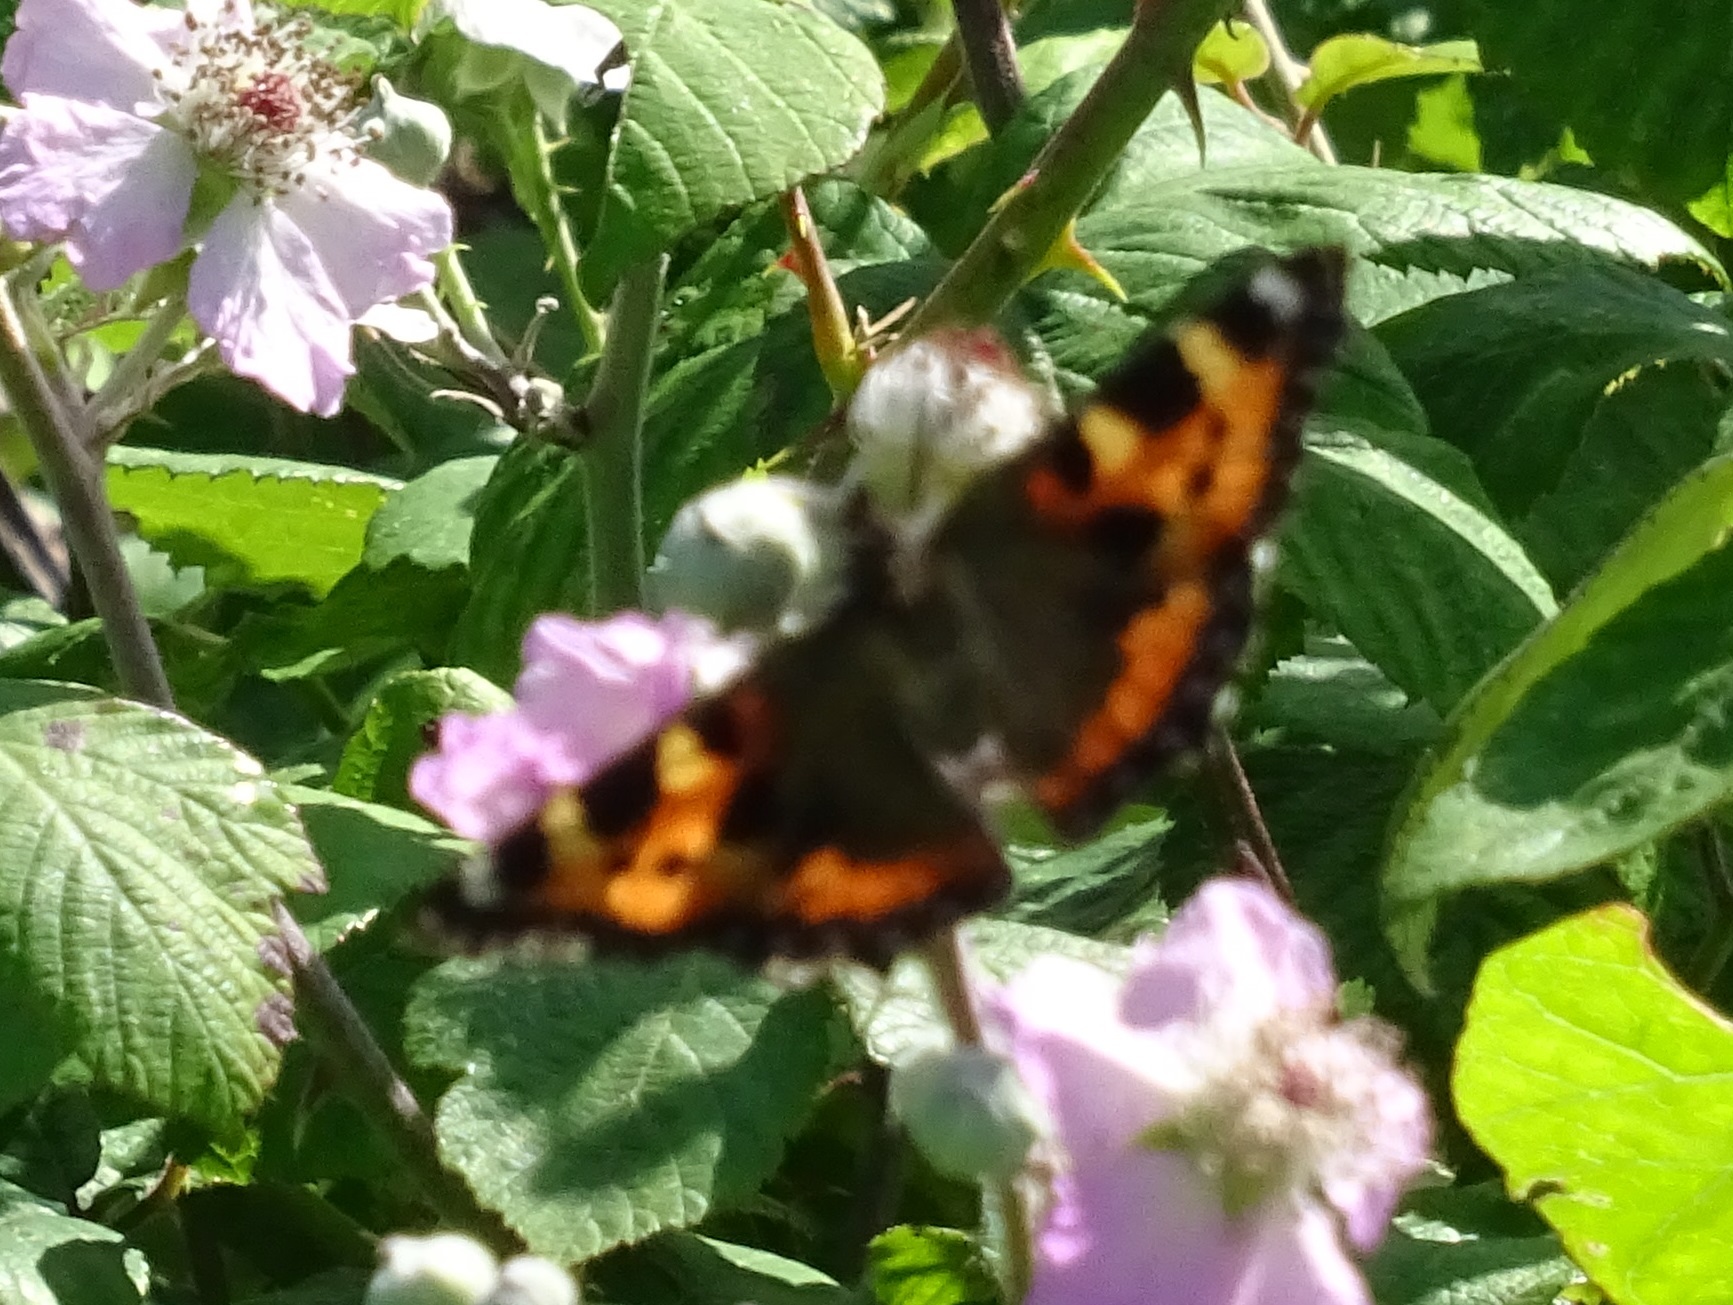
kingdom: Animalia
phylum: Arthropoda
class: Insecta
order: Lepidoptera
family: Nymphalidae
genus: Aglais
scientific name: Aglais urticae
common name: Small tortoiseshell
